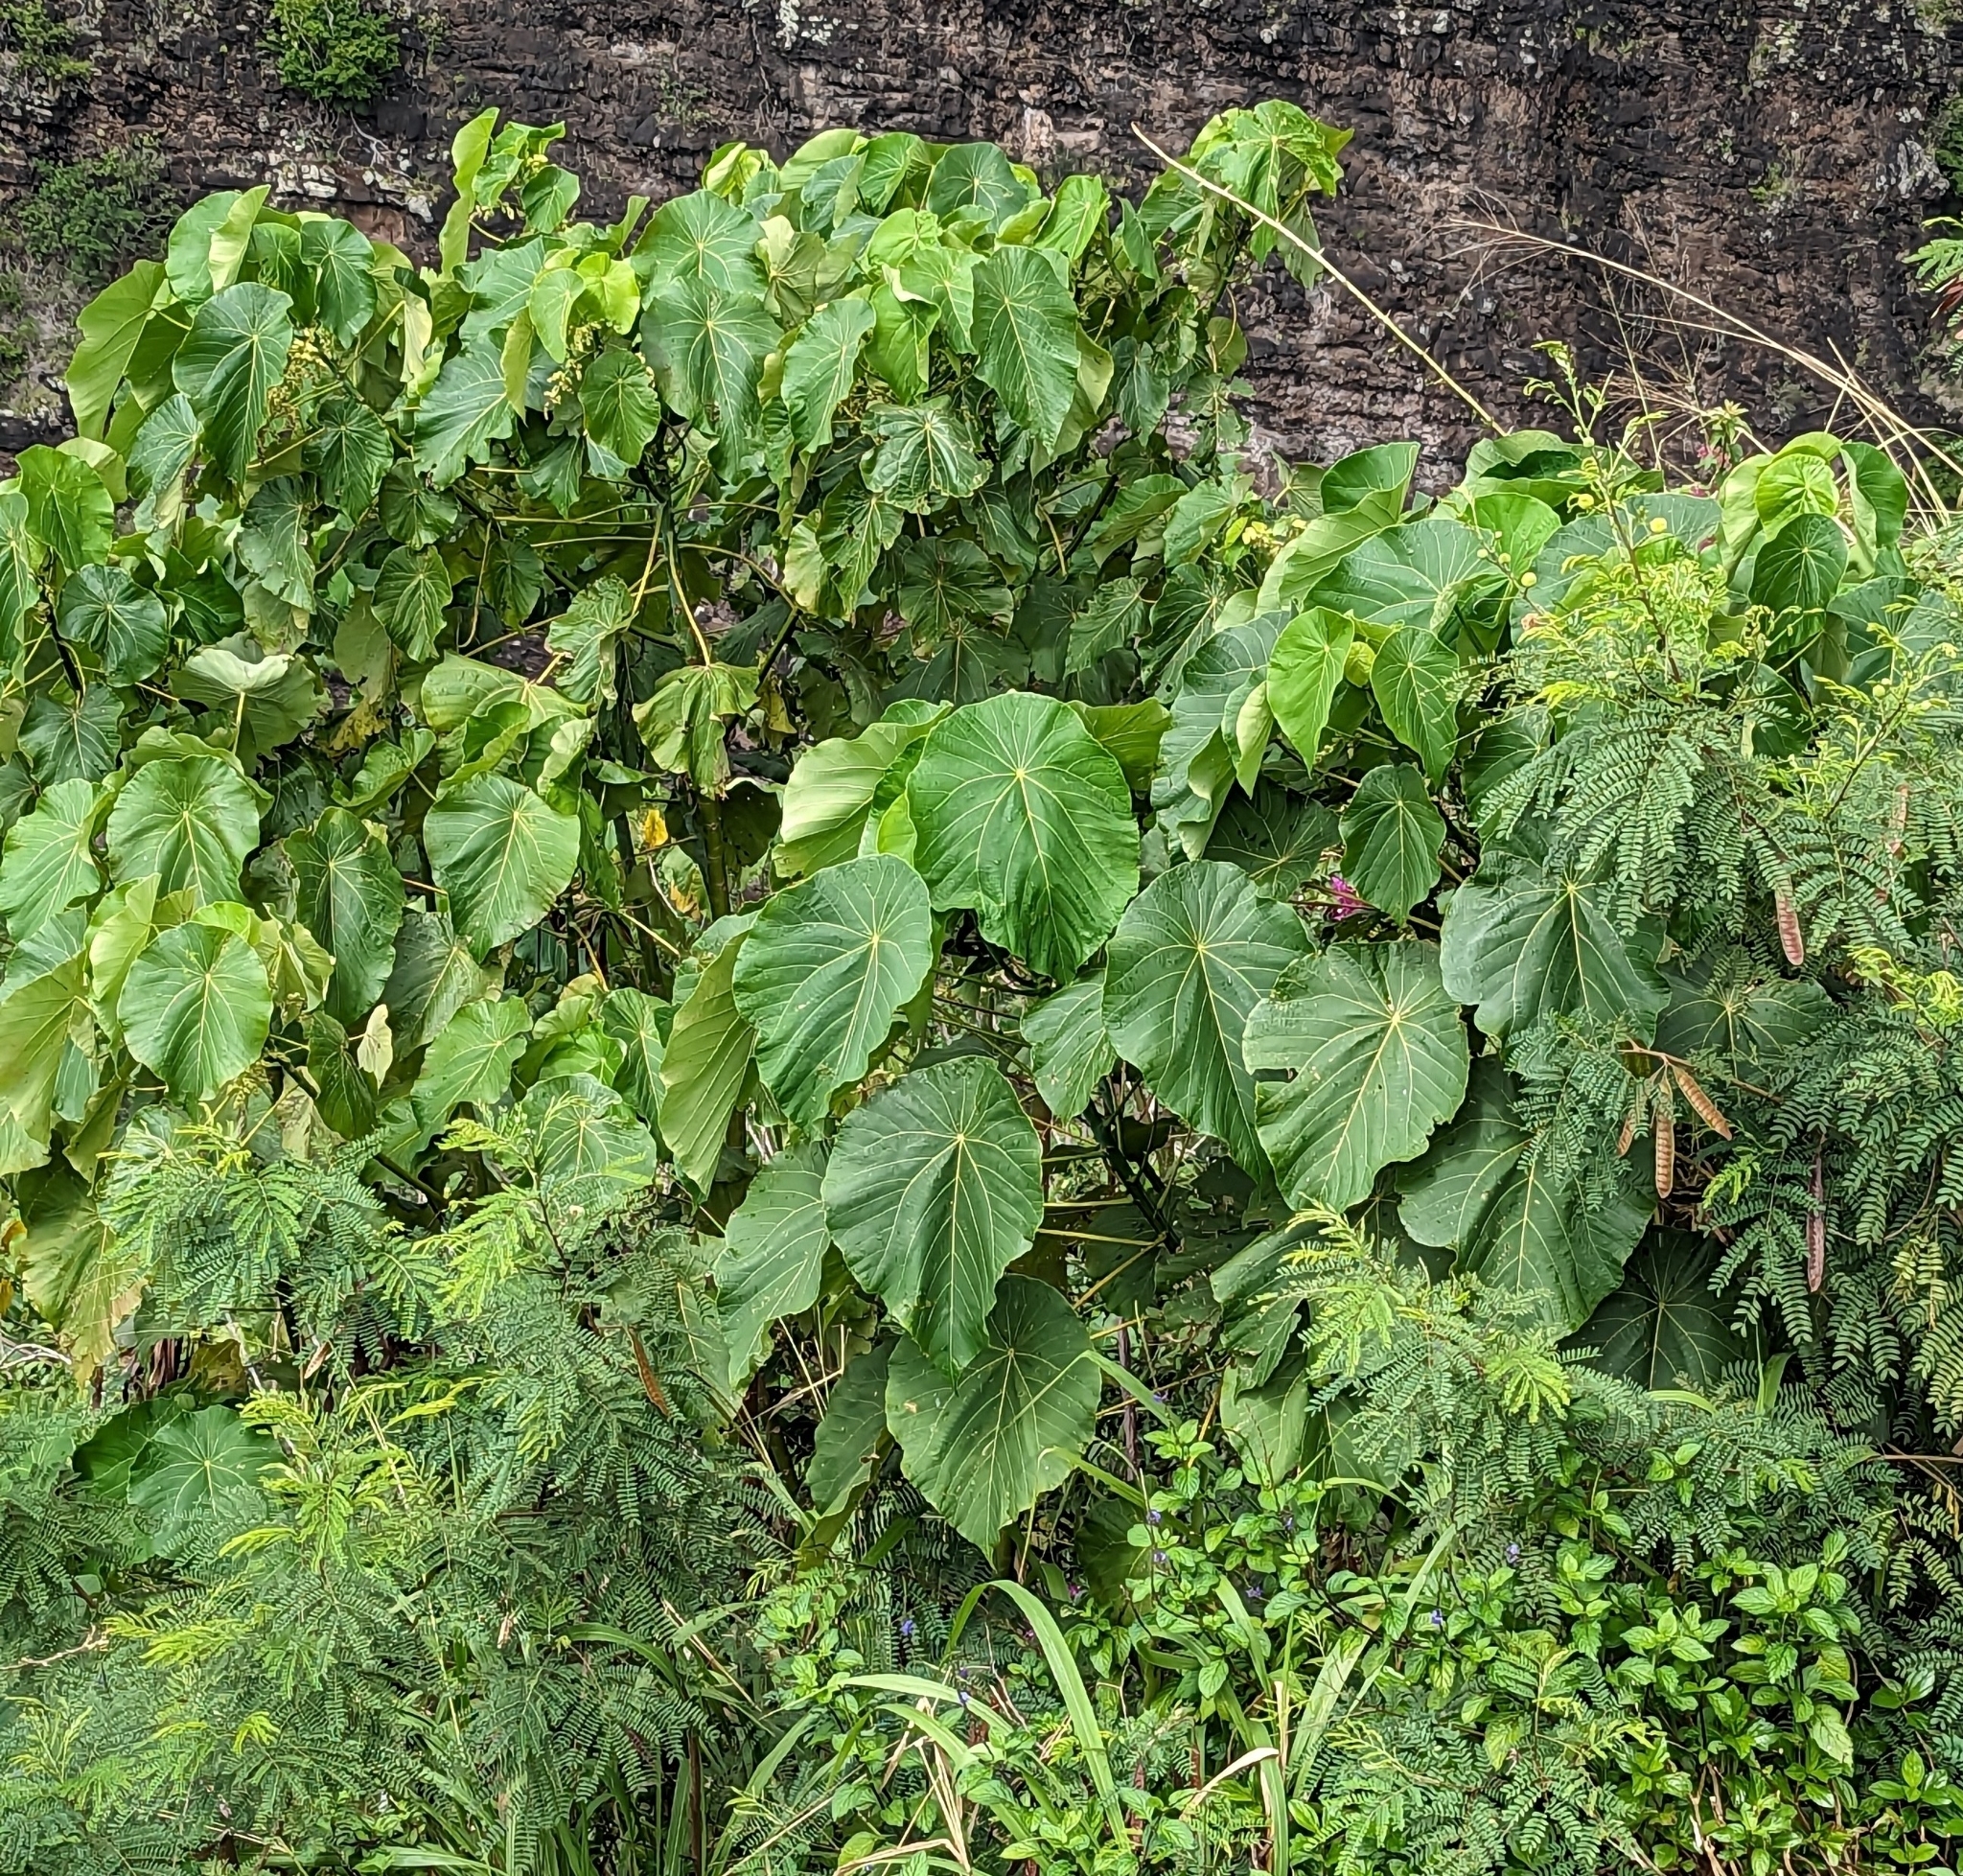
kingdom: Plantae
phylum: Tracheophyta
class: Magnoliopsida
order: Malpighiales
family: Euphorbiaceae
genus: Macaranga
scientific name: Macaranga tanarius
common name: Parasol leaf tree
